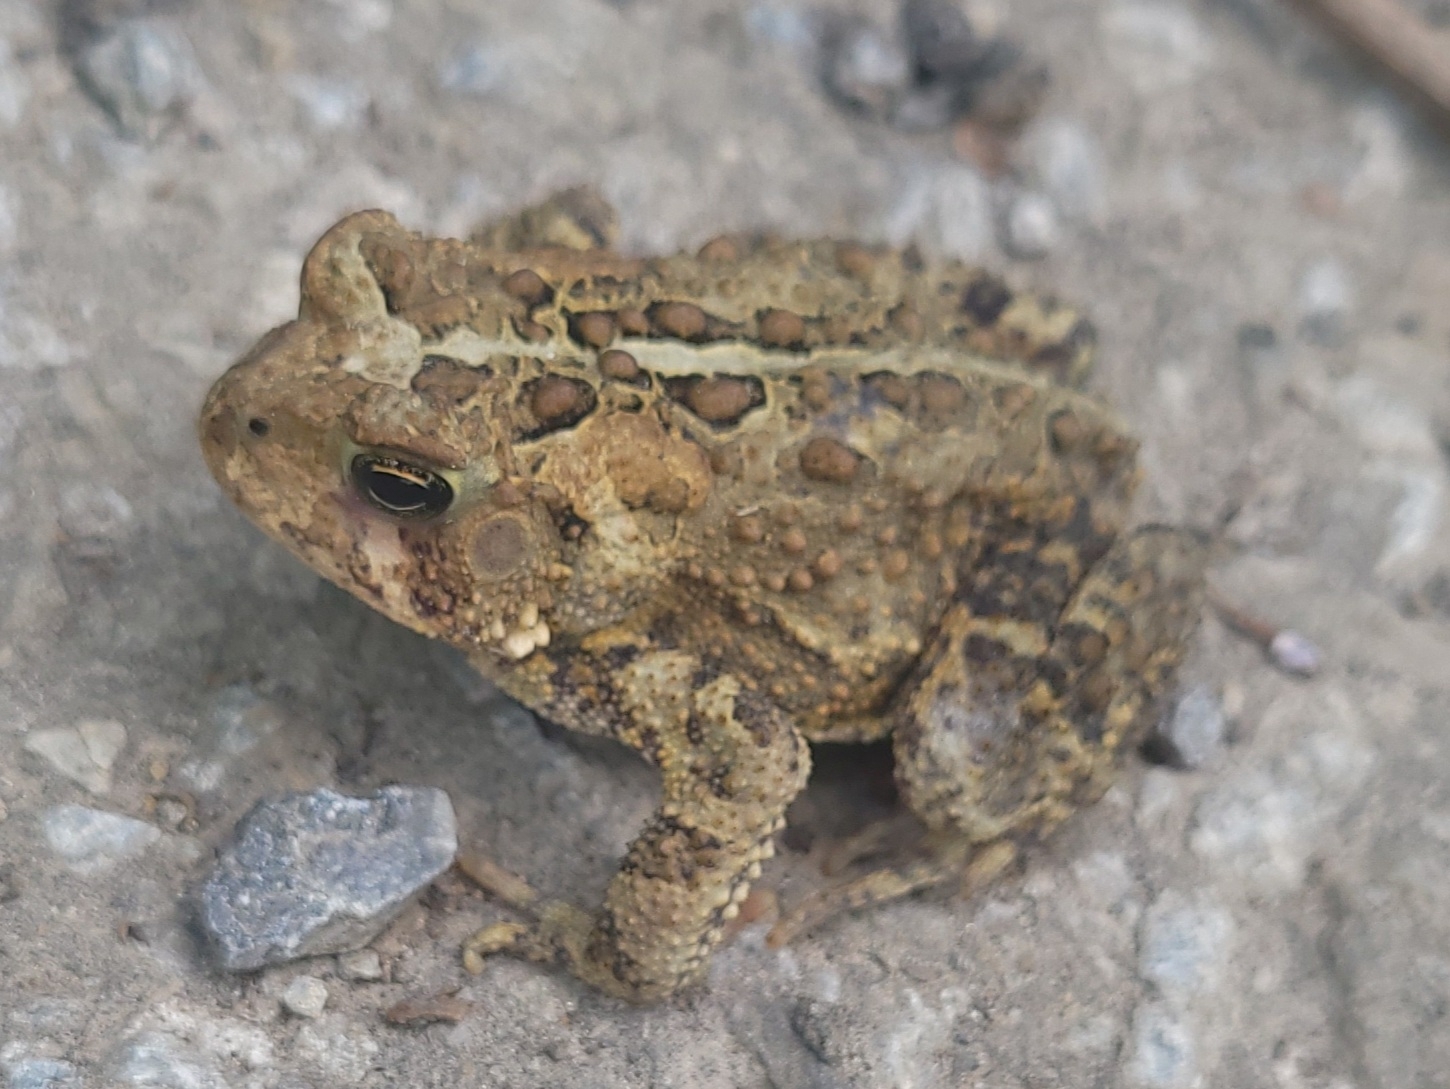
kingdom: Animalia
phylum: Chordata
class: Amphibia
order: Anura
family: Bufonidae
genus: Anaxyrus
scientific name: Anaxyrus americanus
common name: American toad
